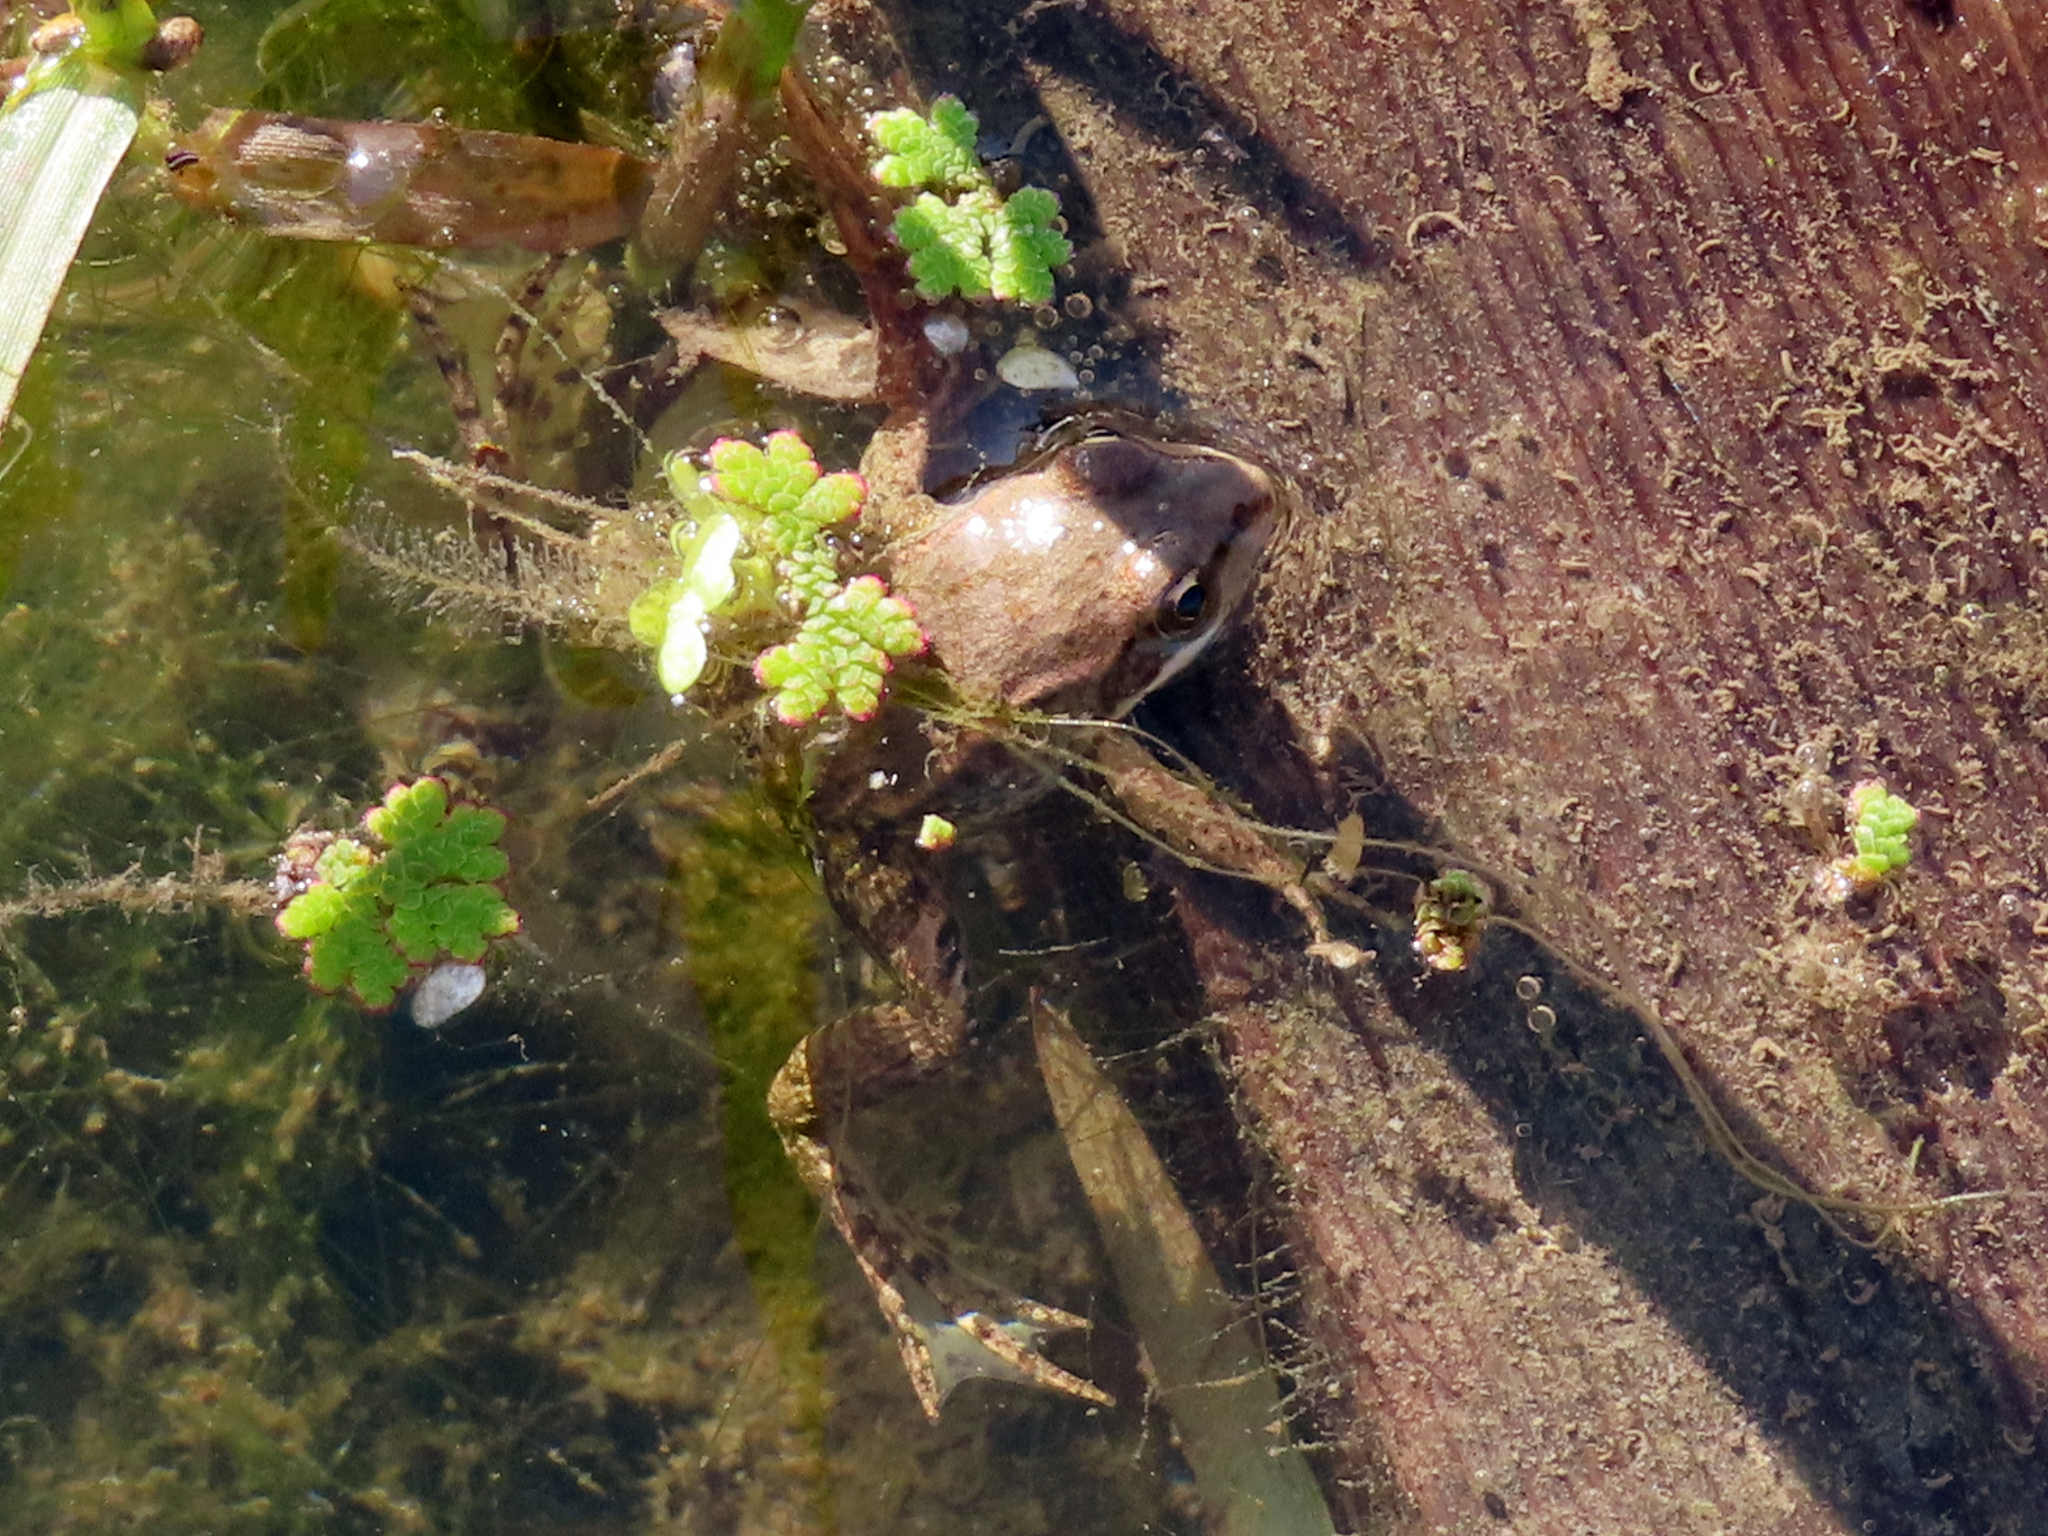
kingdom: Animalia
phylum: Chordata
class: Amphibia
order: Anura
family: Ranidae
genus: Pelophylax
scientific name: Pelophylax ridibundus
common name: Marsh frog
